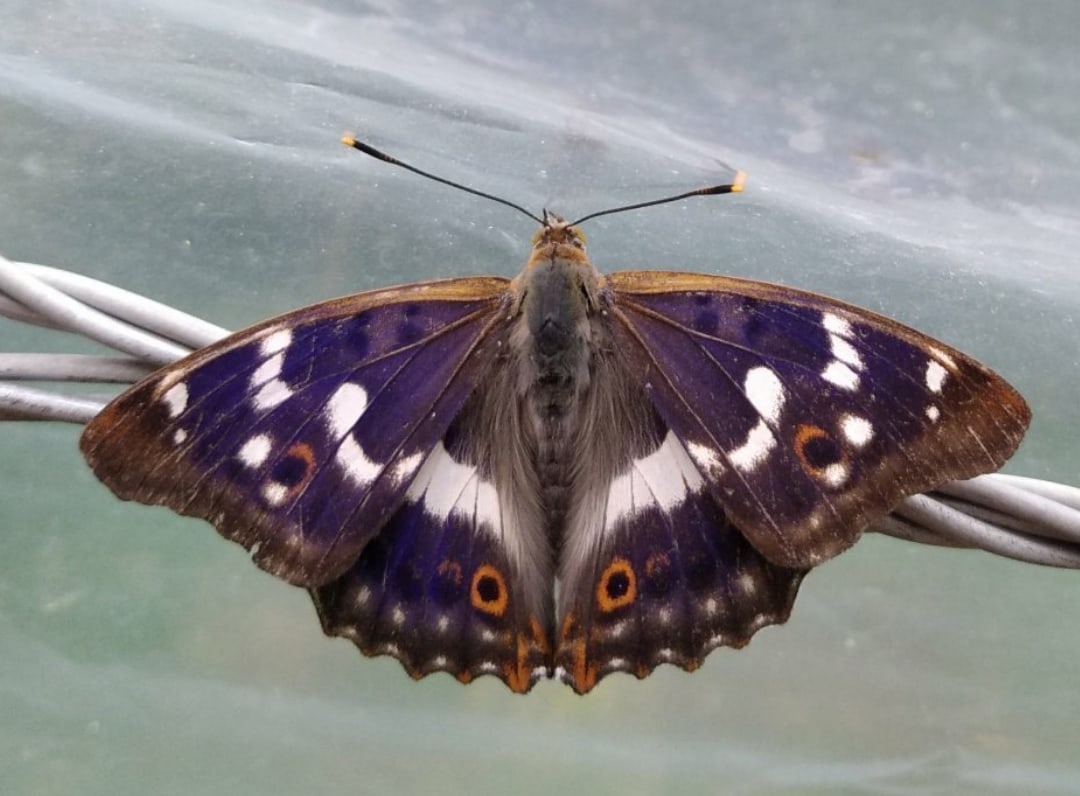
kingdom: Animalia
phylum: Arthropoda
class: Insecta
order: Lepidoptera
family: Nymphalidae
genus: Apatura
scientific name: Apatura ilia
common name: Lesser purple emperor
